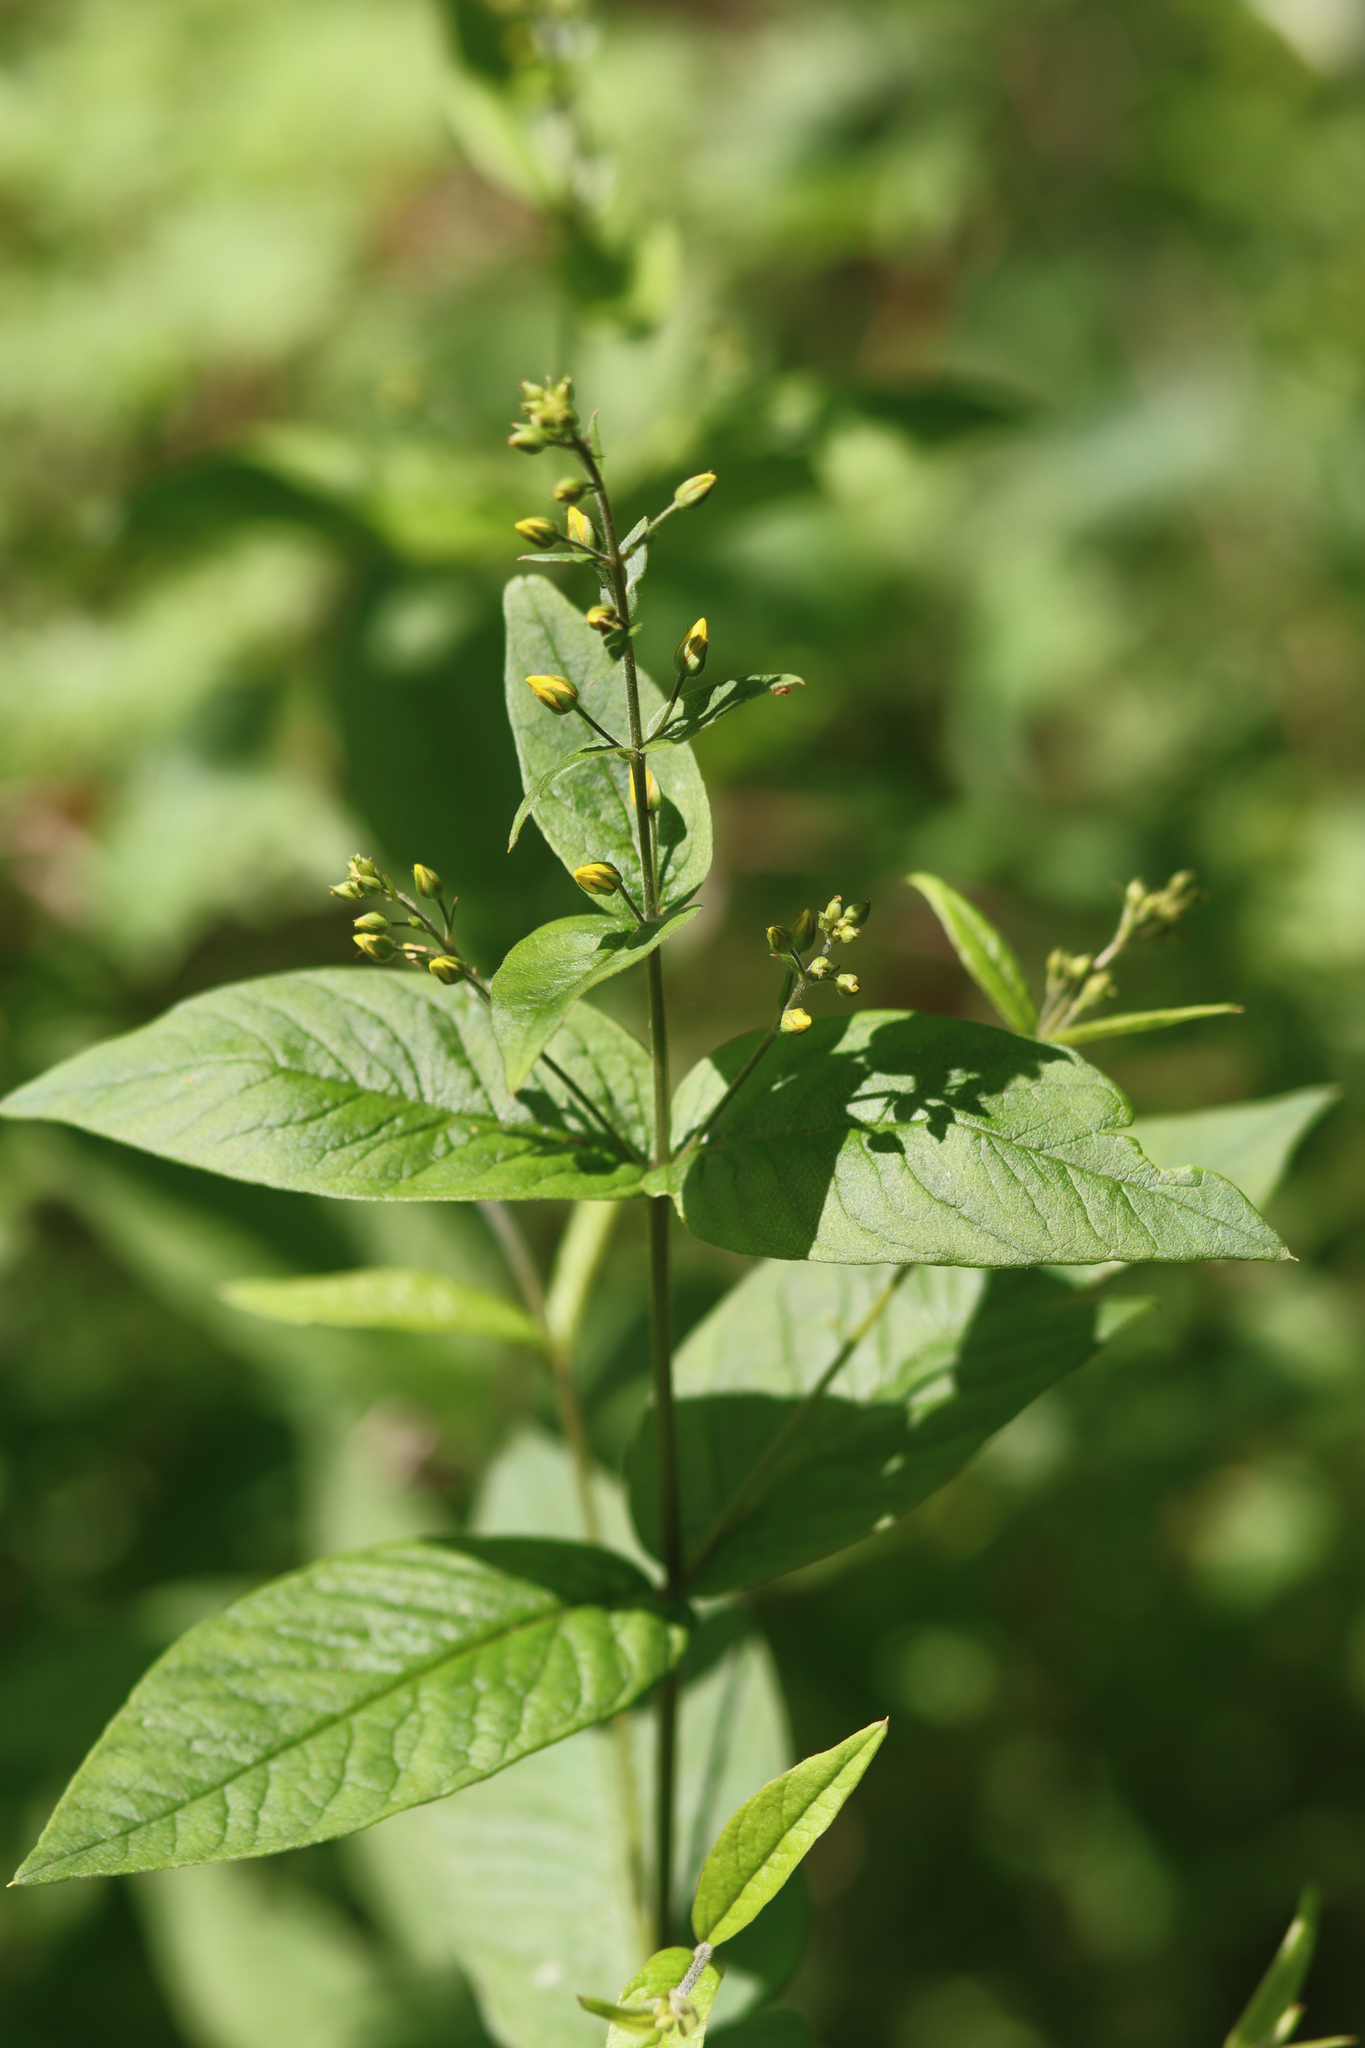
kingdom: Plantae
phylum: Tracheophyta
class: Magnoliopsida
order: Ericales
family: Primulaceae
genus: Lysimachia
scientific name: Lysimachia vulgaris
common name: Yellow loosestrife
